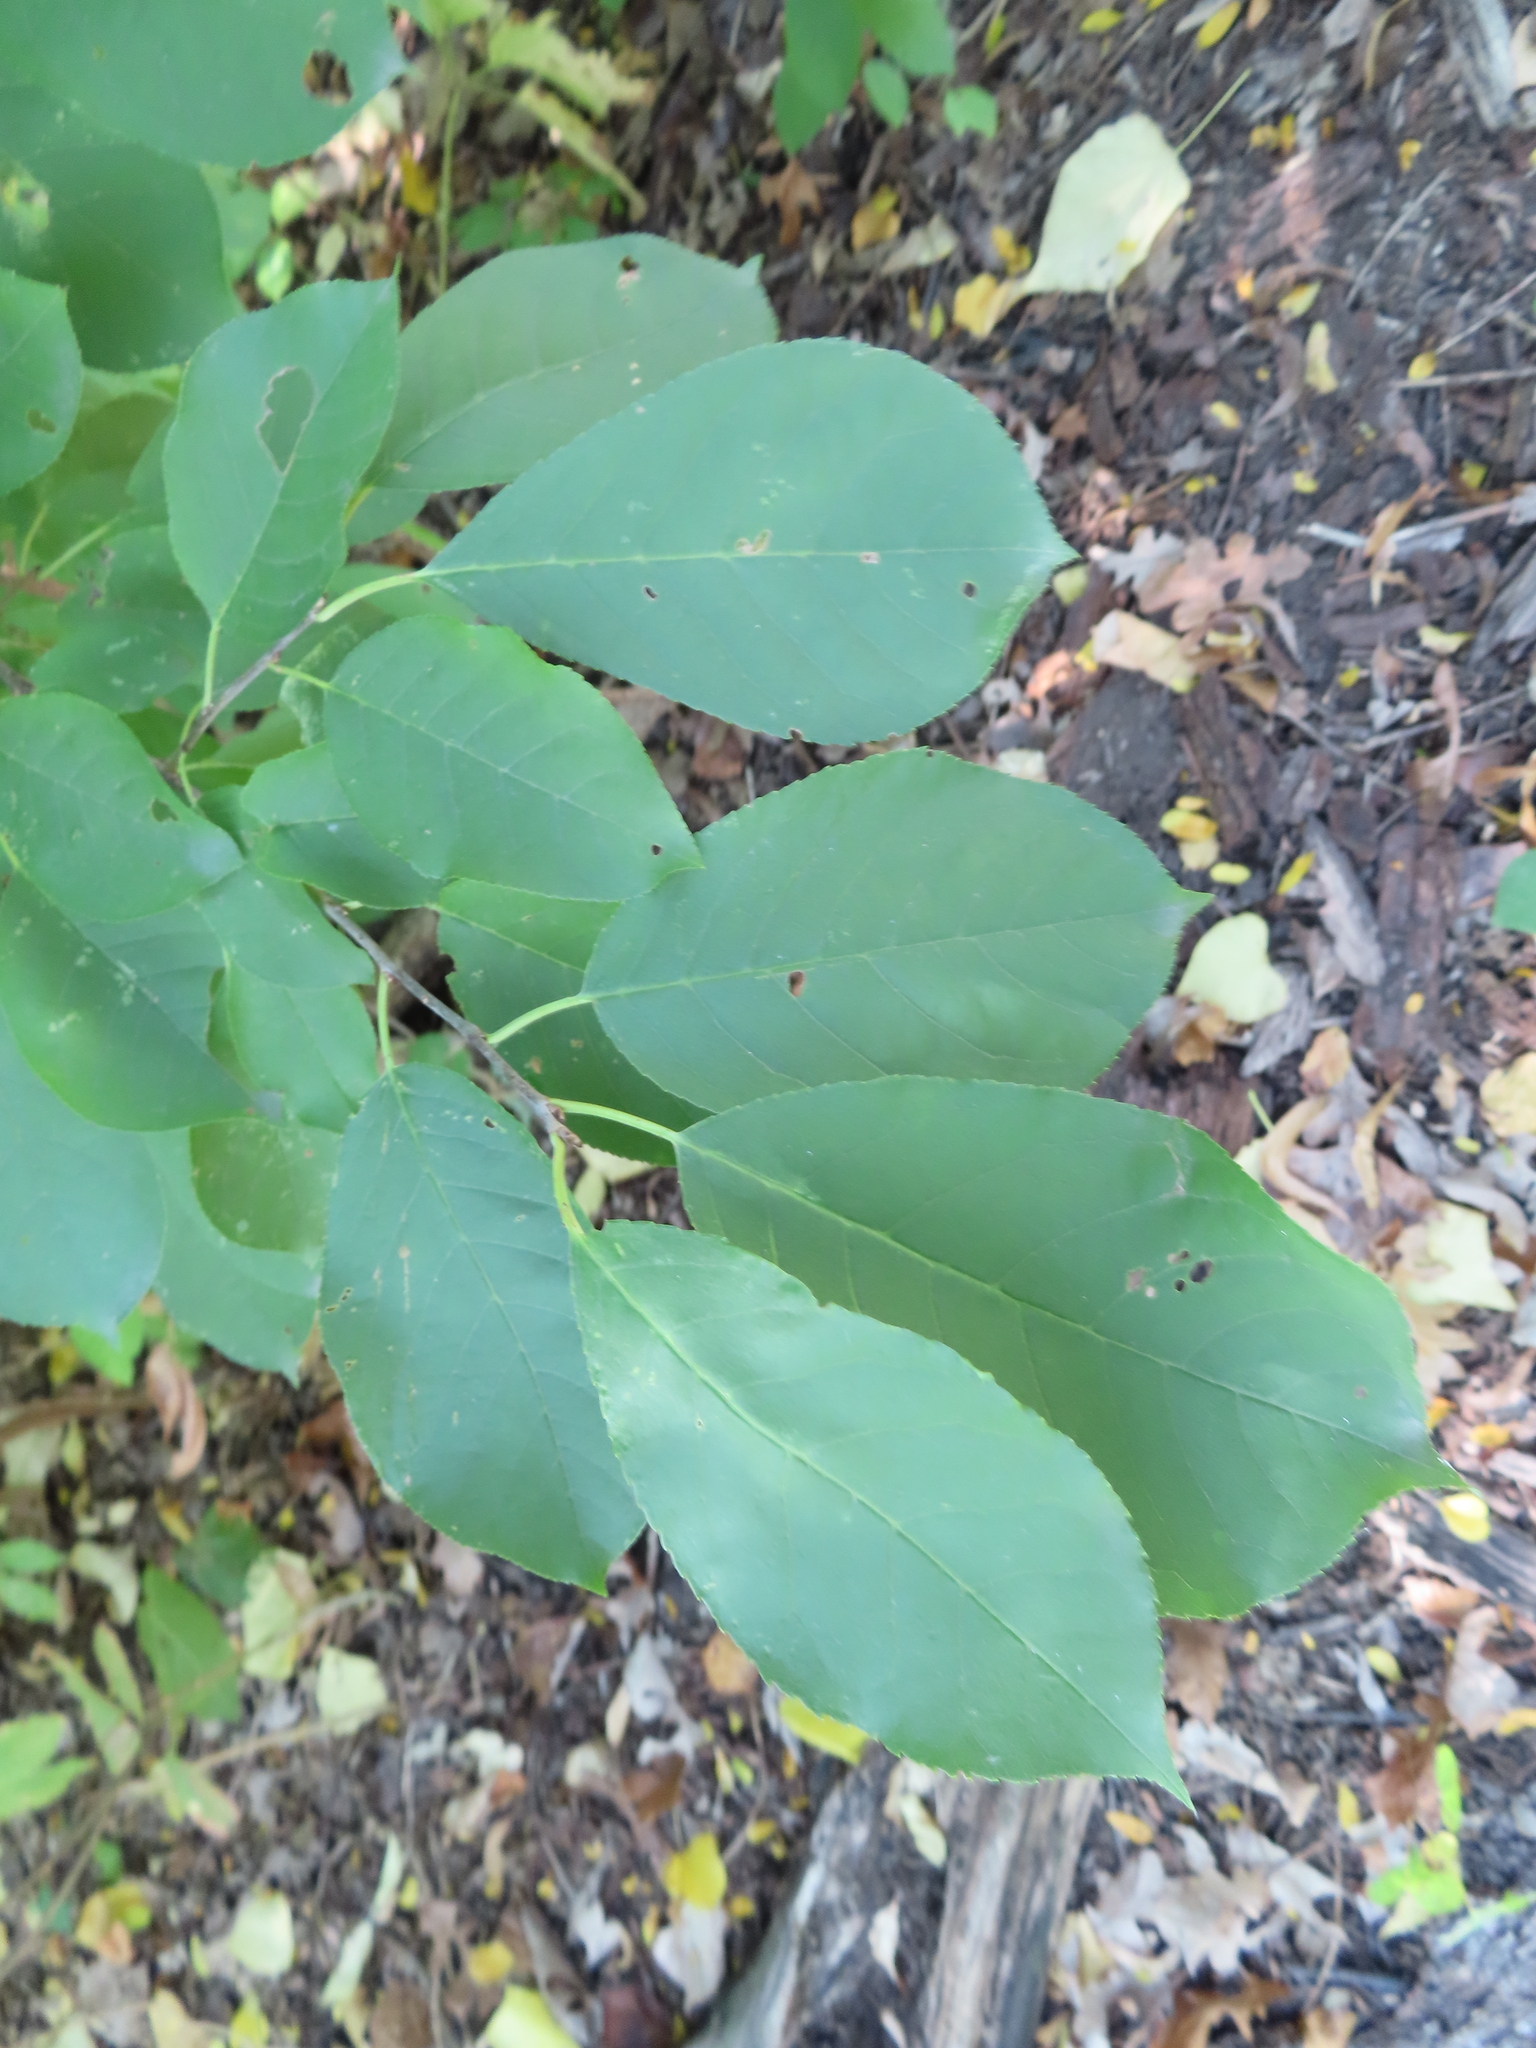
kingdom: Plantae
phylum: Tracheophyta
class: Magnoliopsida
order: Rosales
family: Rosaceae
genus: Prunus
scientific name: Prunus virginiana
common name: Chokecherry
